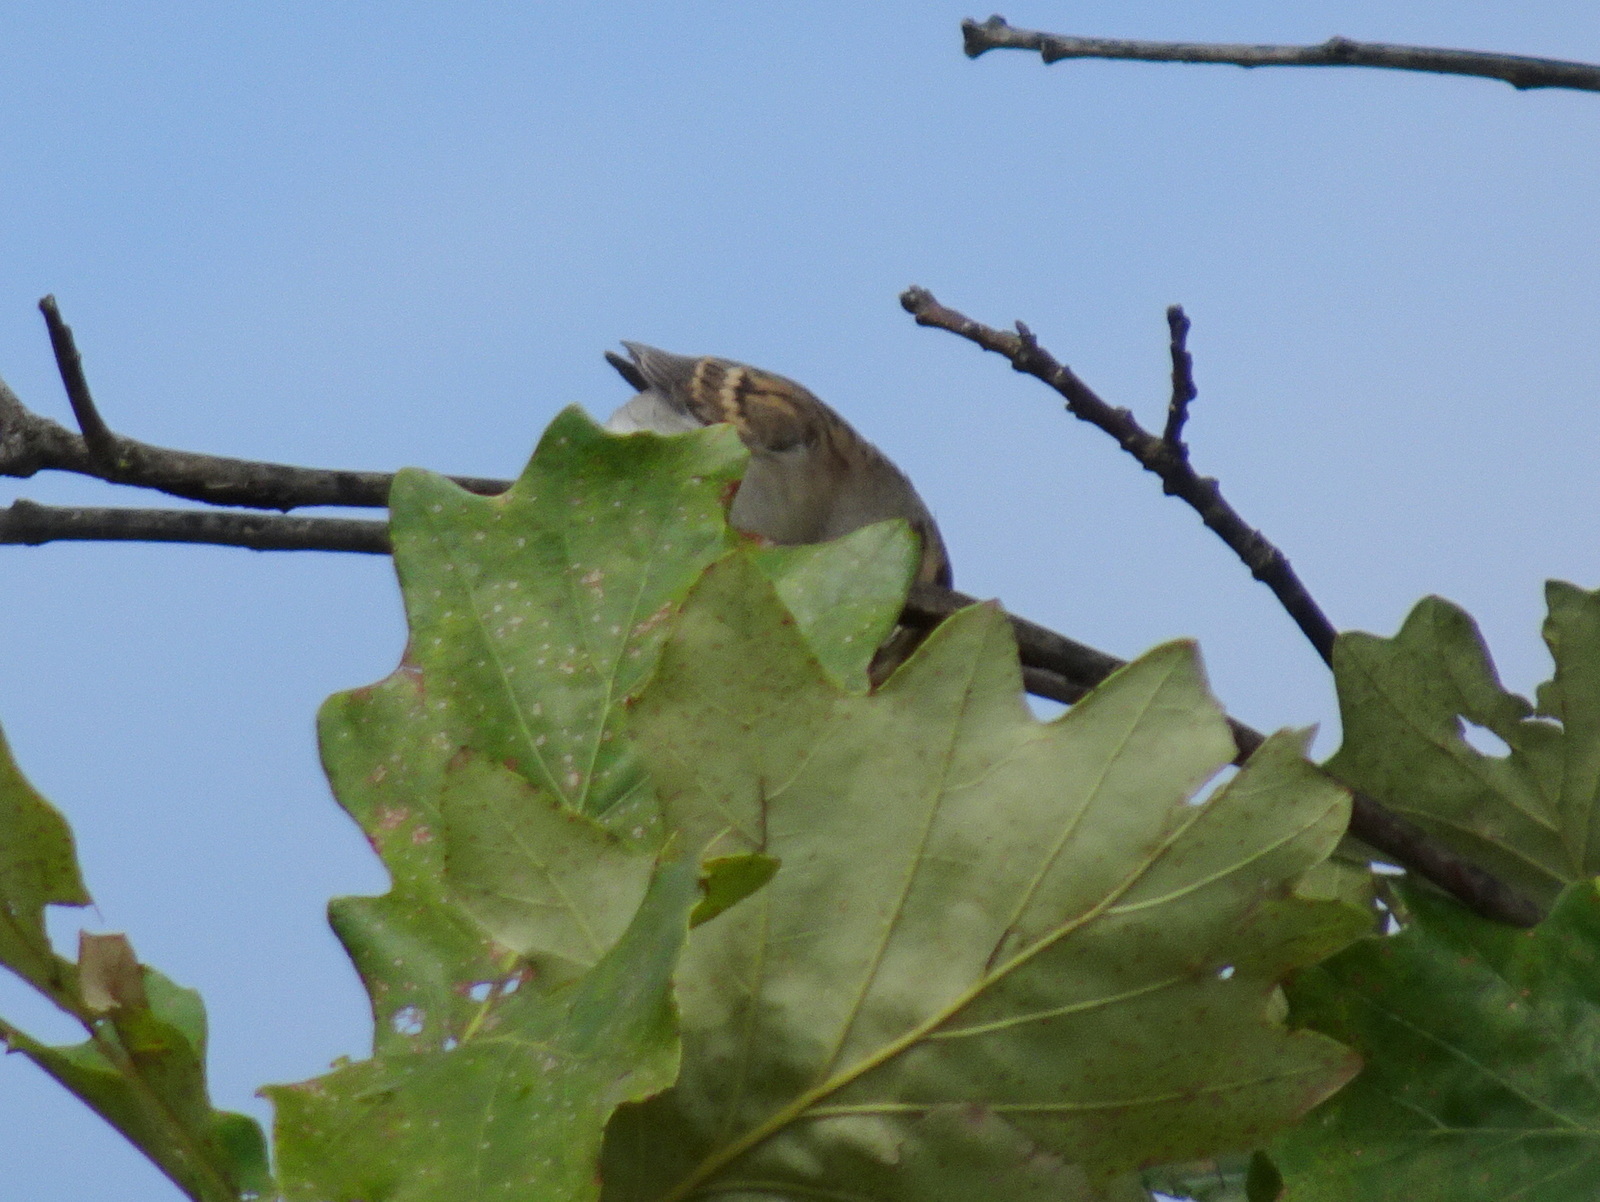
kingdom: Animalia
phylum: Chordata
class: Aves
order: Passeriformes
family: Passerellidae
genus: Spizella
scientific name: Spizella passerina
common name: Chipping sparrow
